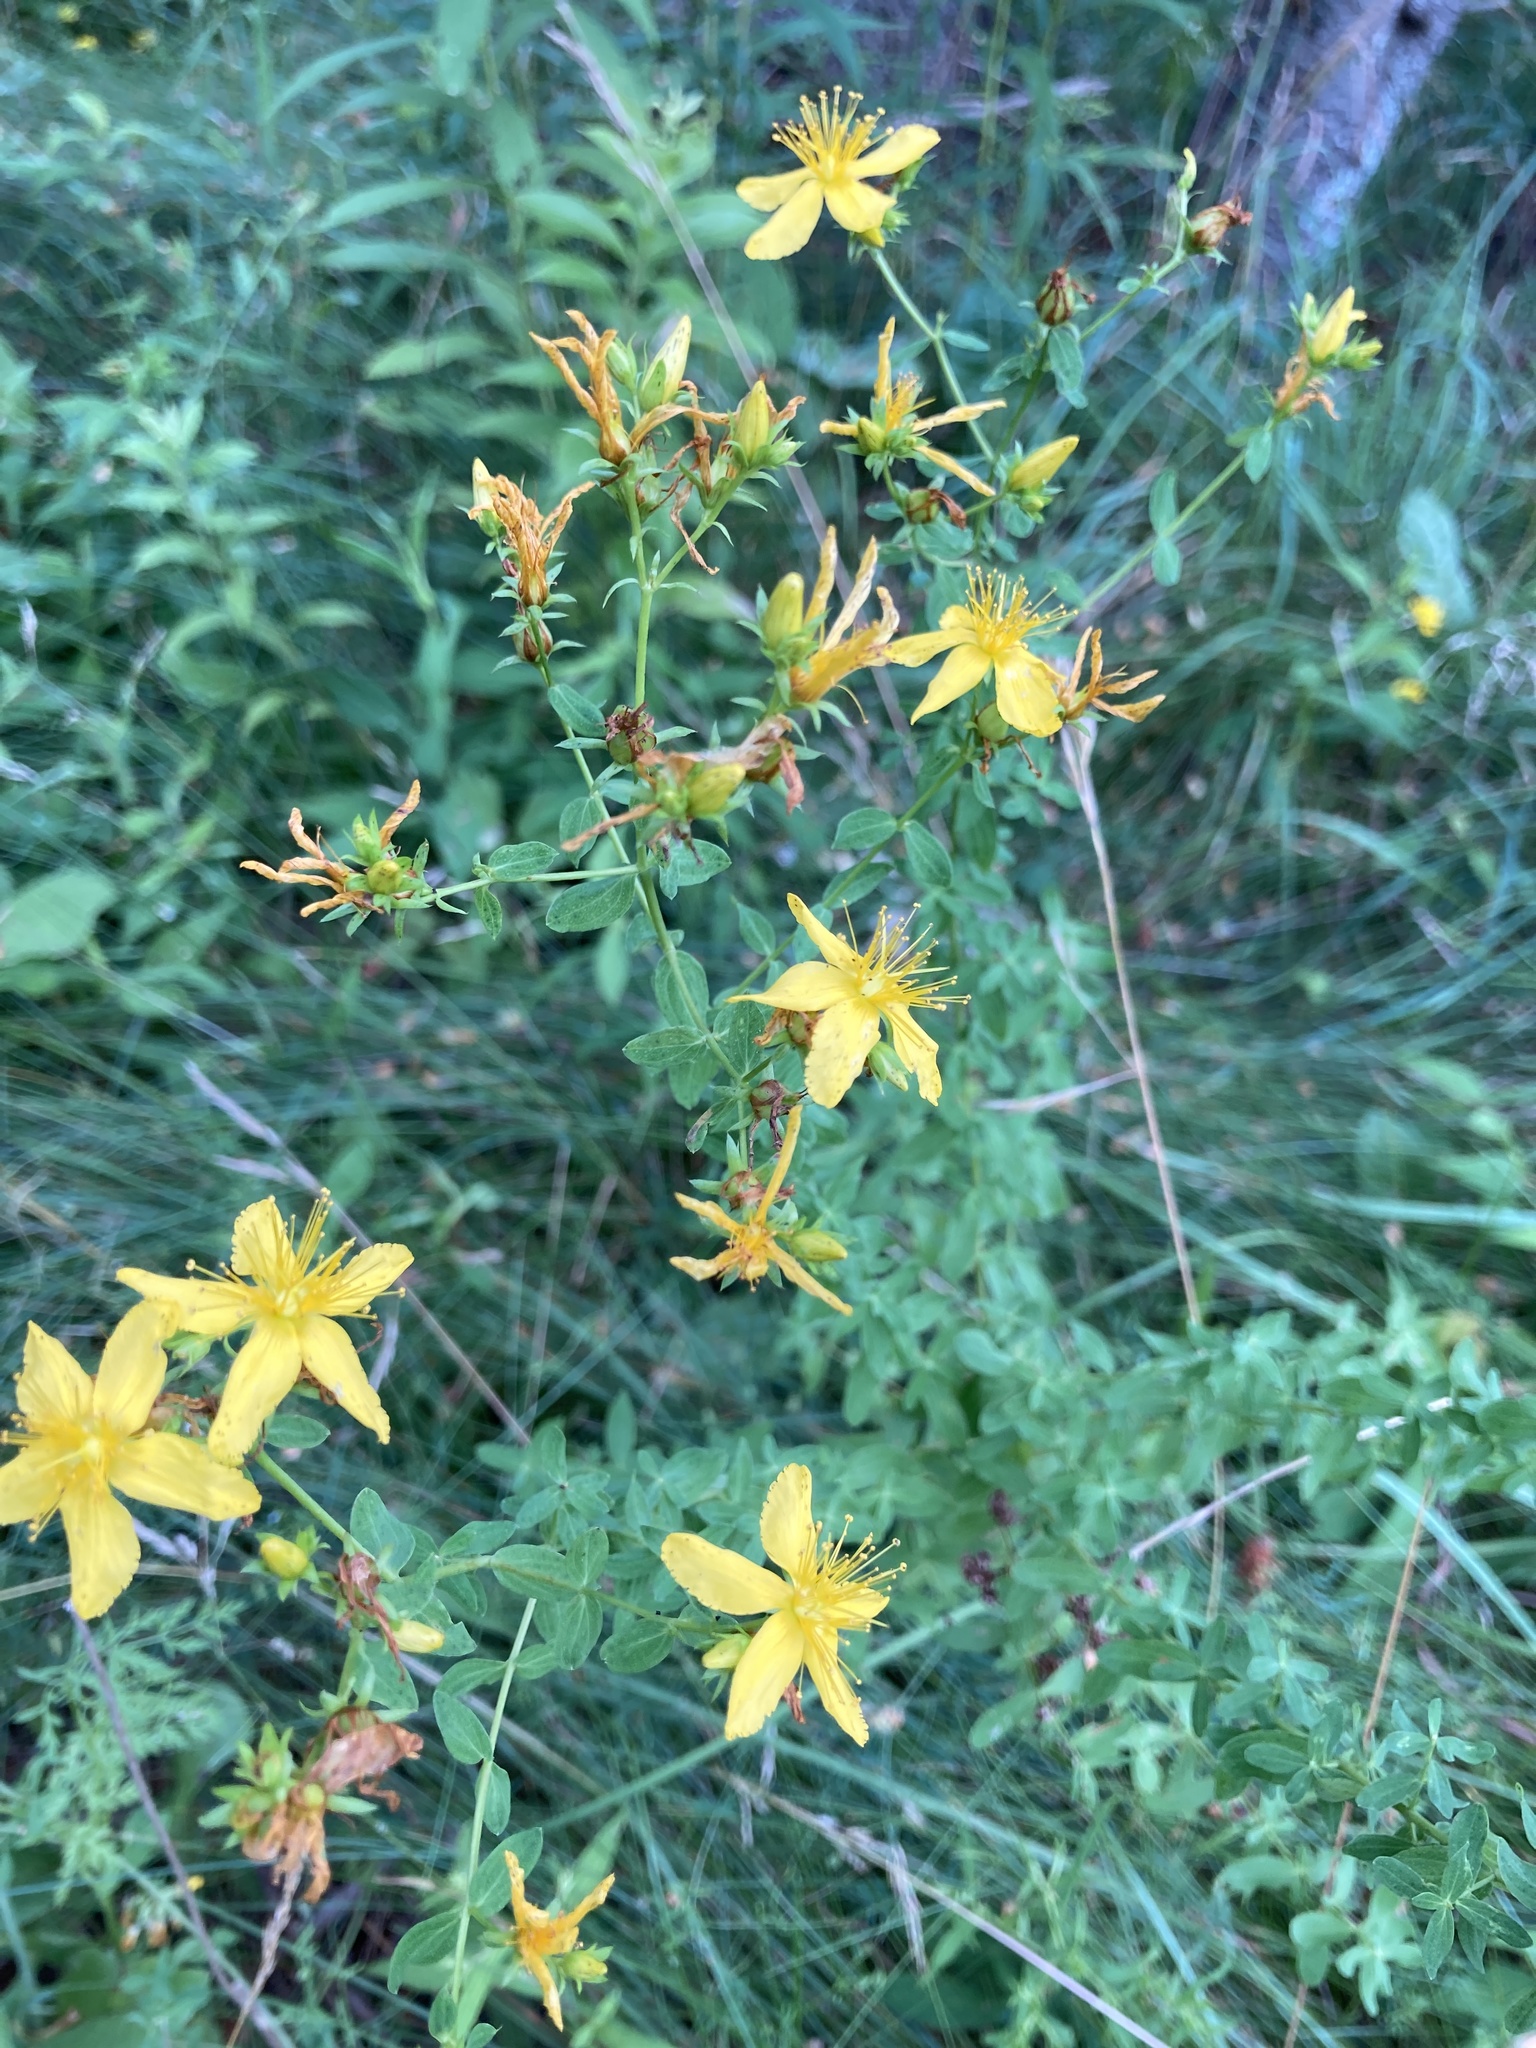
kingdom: Plantae
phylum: Tracheophyta
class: Magnoliopsida
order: Malpighiales
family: Hypericaceae
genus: Hypericum
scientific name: Hypericum perforatum
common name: Common st. johnswort
